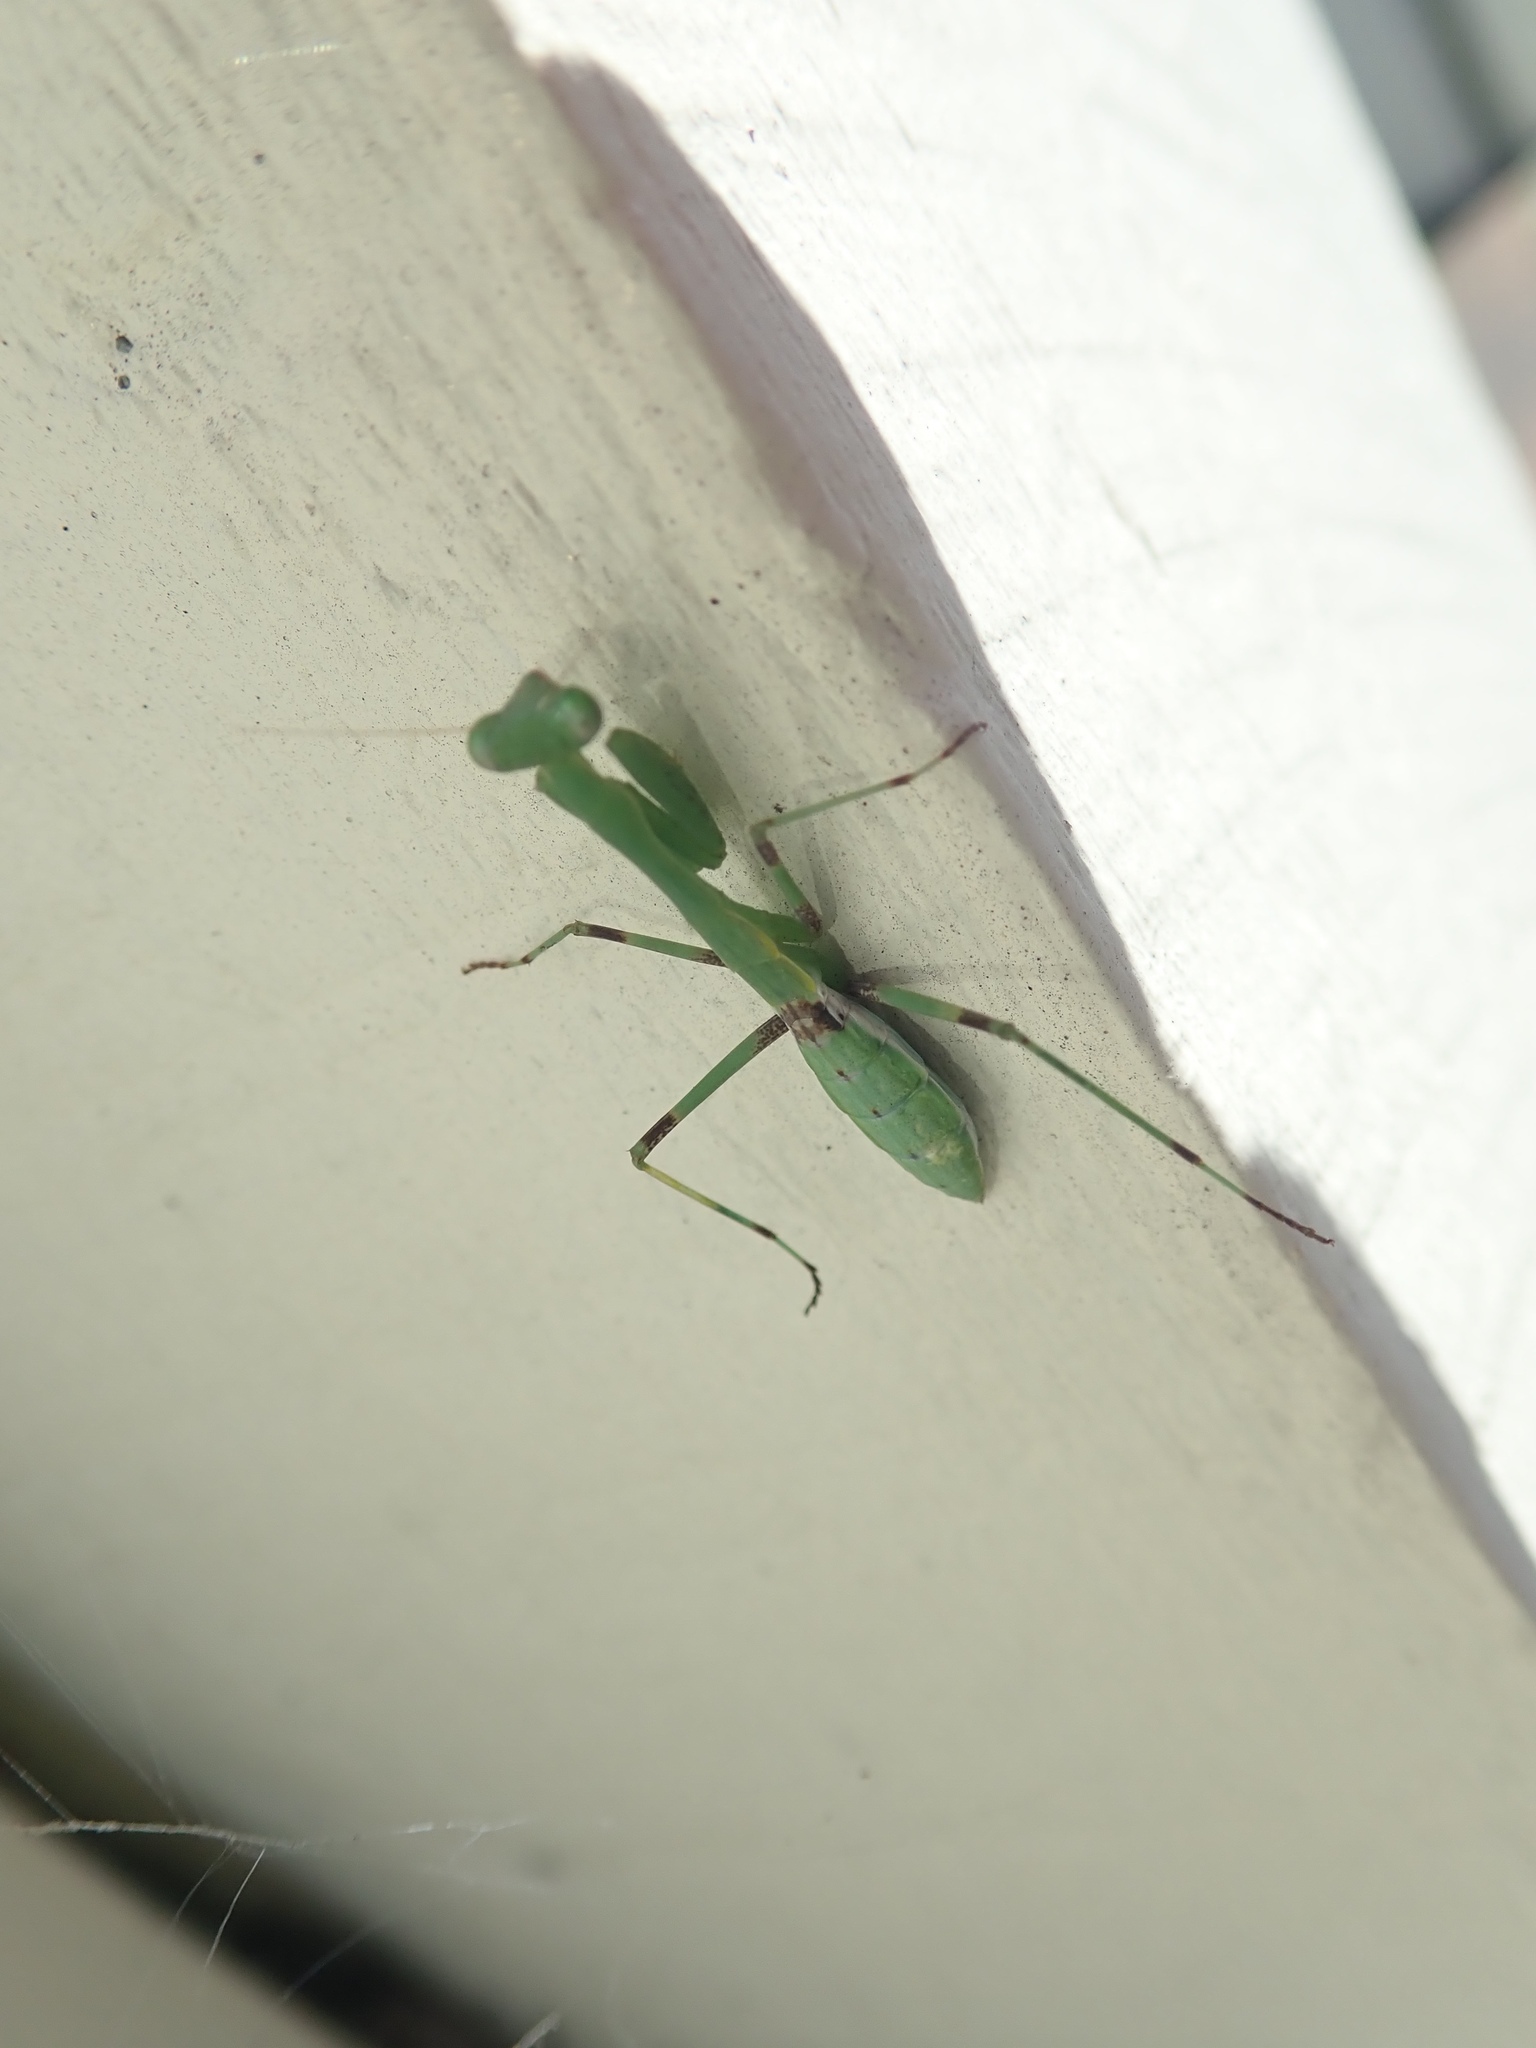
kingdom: Animalia
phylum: Arthropoda
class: Insecta
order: Mantodea
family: Miomantidae
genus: Miomantis
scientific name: Miomantis caffra
